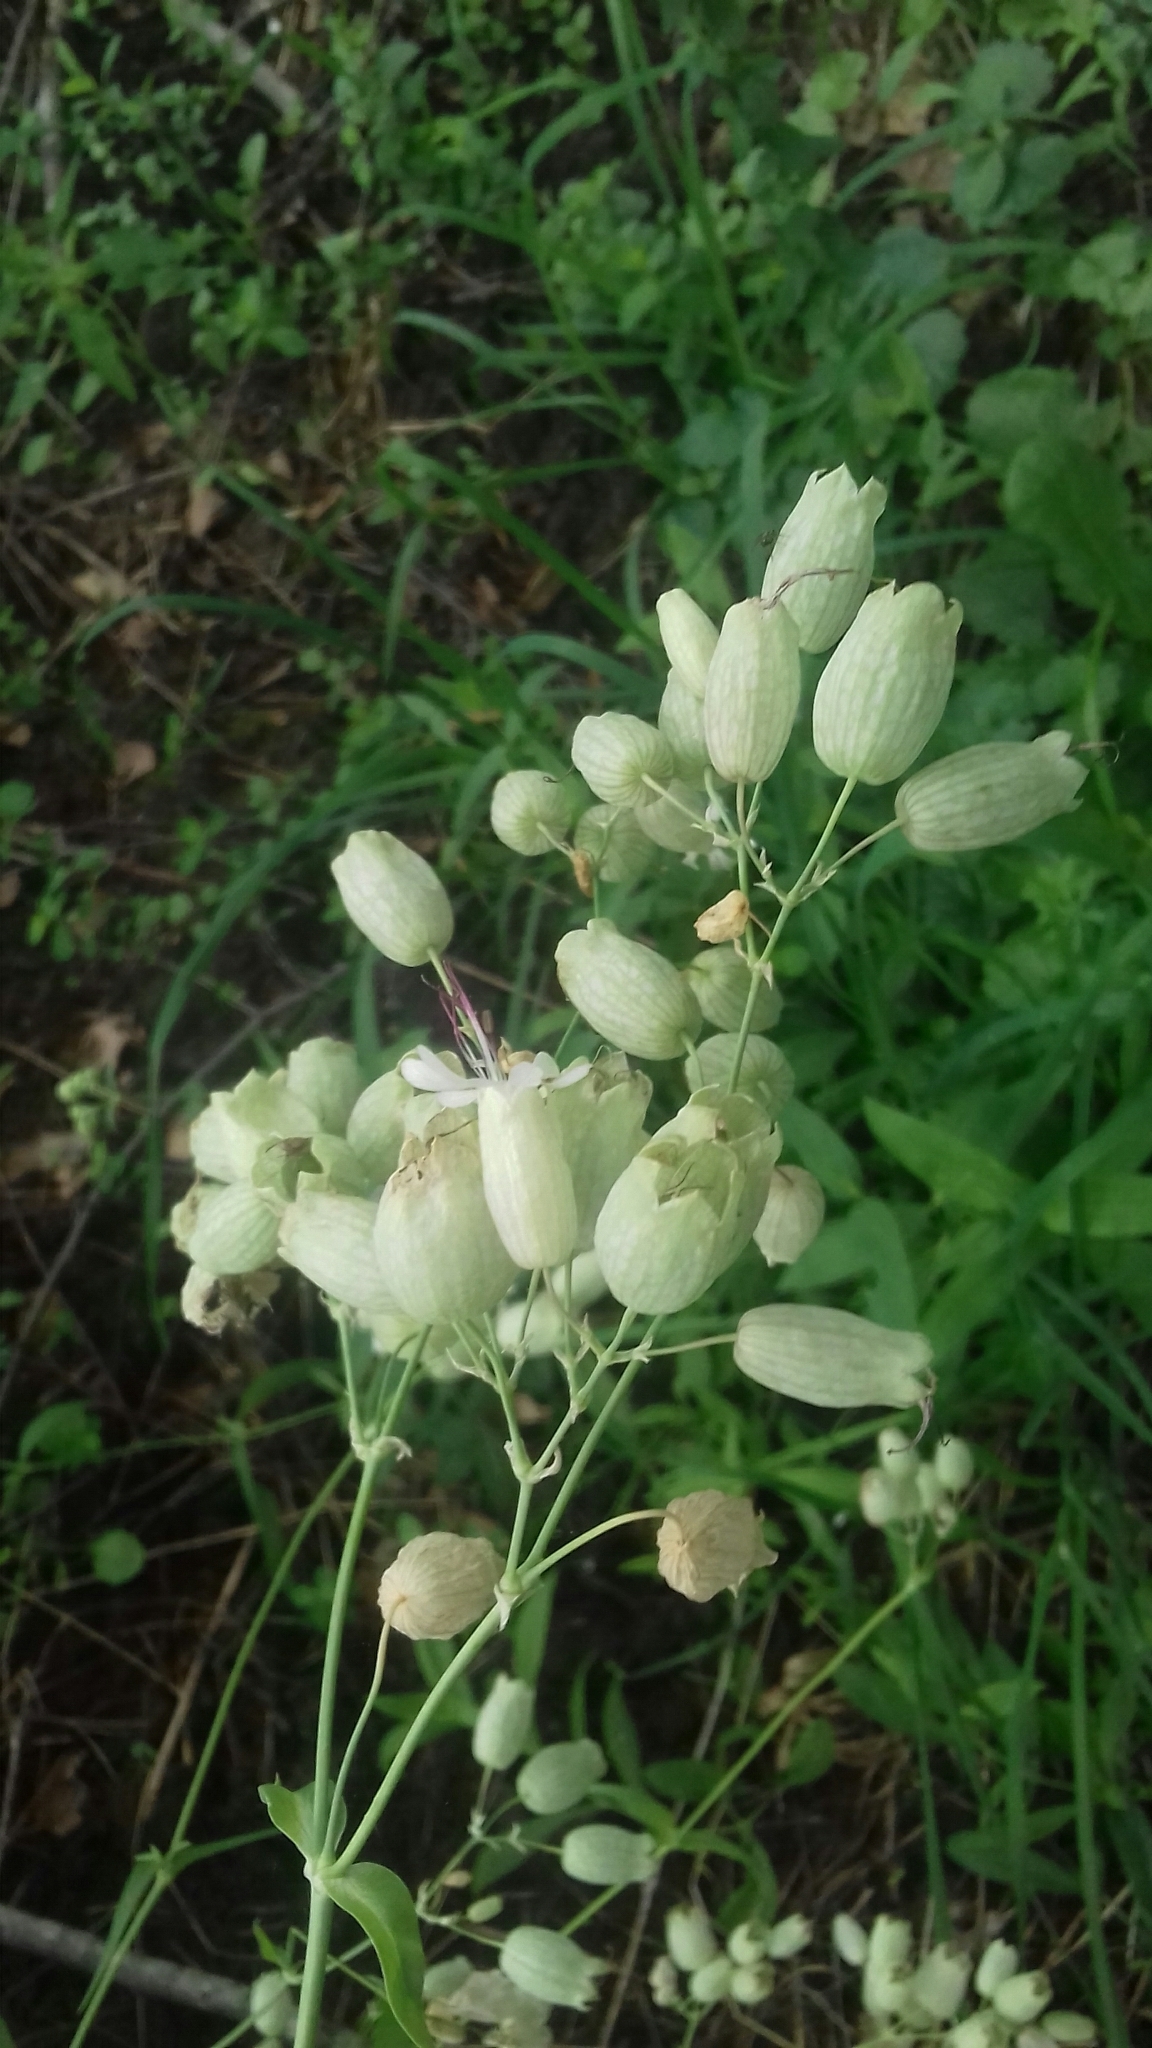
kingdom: Plantae
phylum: Tracheophyta
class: Magnoliopsida
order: Caryophyllales
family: Caryophyllaceae
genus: Silene
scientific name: Silene vulgaris
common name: Bladder campion
